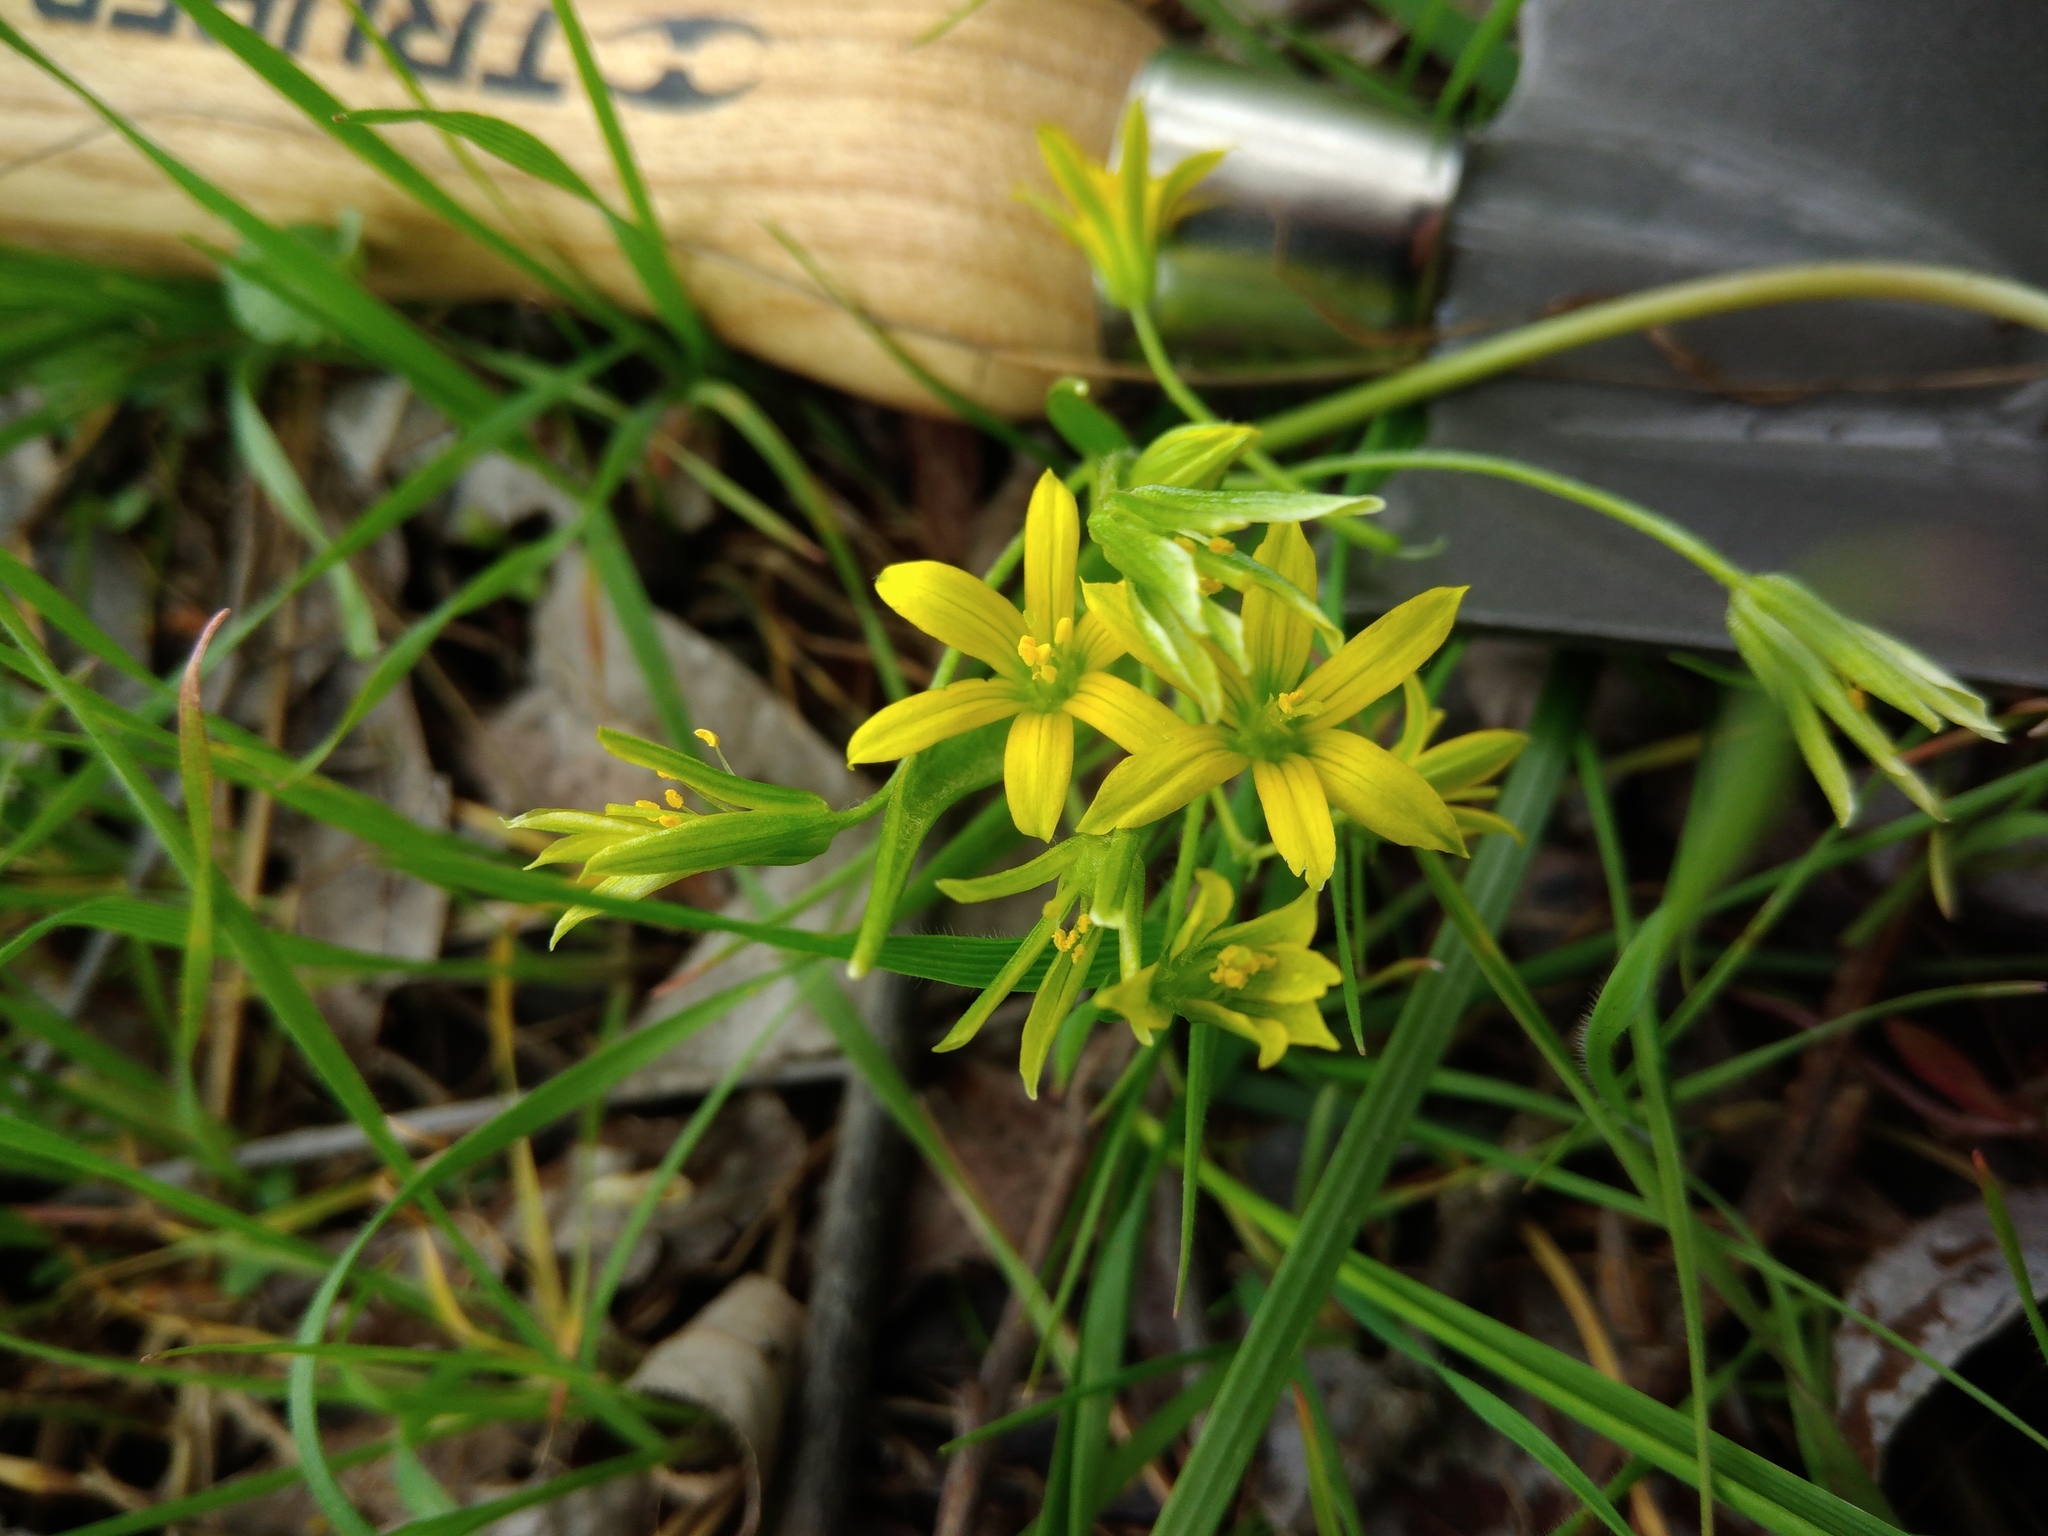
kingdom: Plantae
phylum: Tracheophyta
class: Liliopsida
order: Liliales
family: Liliaceae
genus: Gagea
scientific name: Gagea minima
